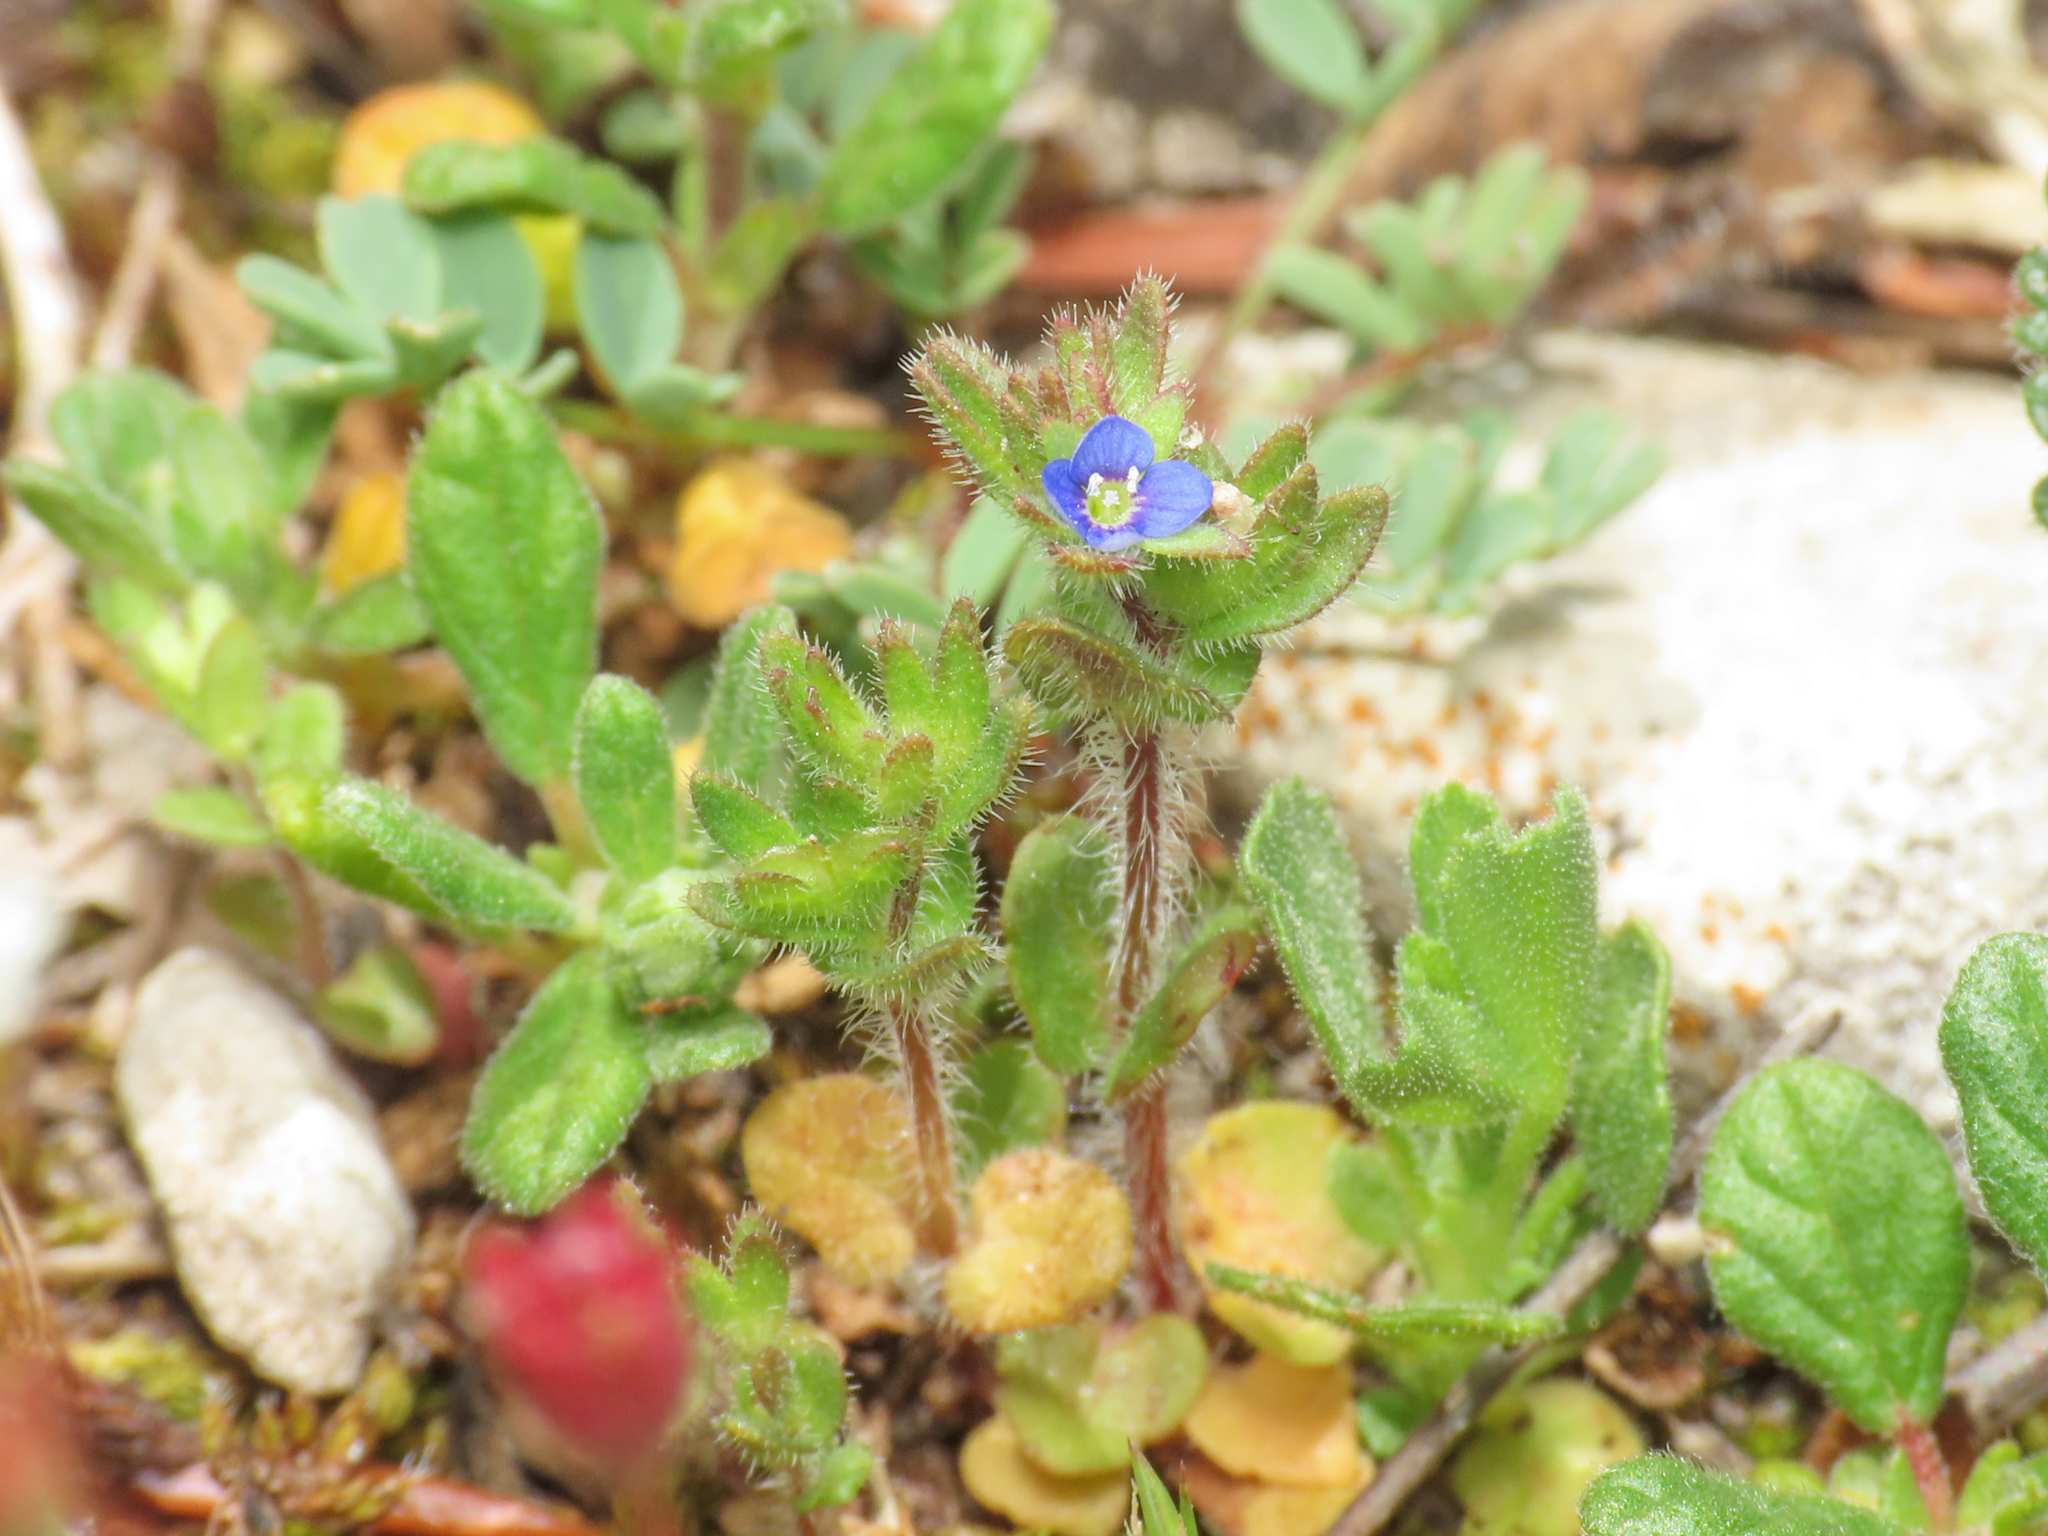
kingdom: Plantae
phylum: Tracheophyta
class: Magnoliopsida
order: Lamiales
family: Plantaginaceae
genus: Veronica
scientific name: Veronica arvensis
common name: Corn speedwell
